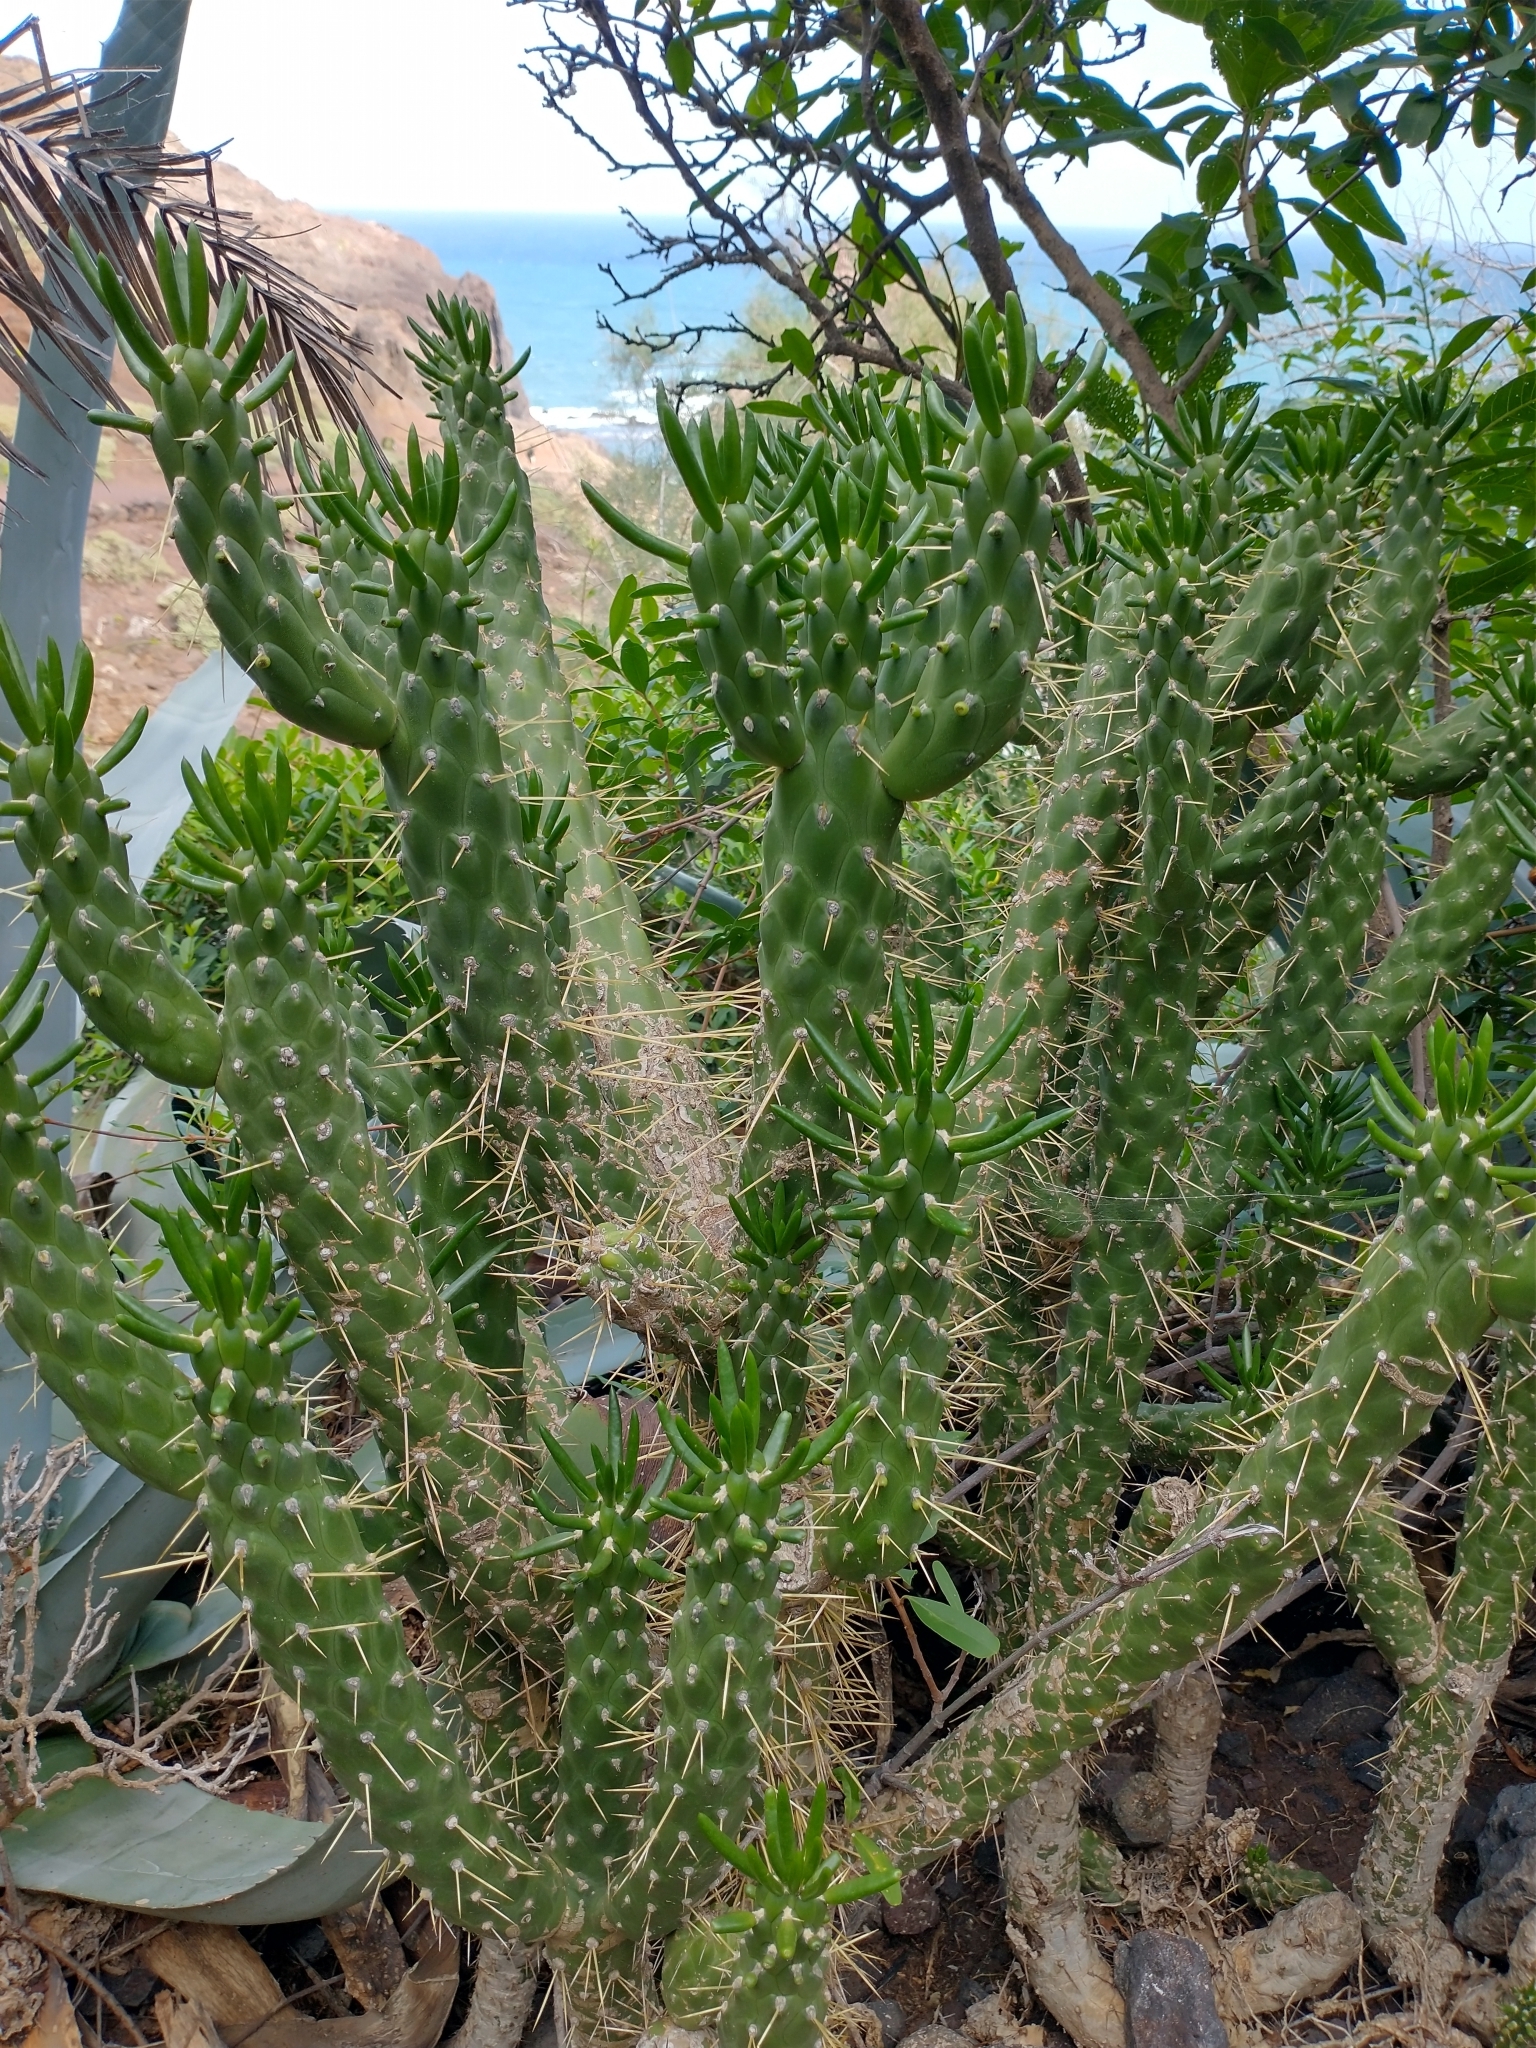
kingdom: Plantae
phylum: Tracheophyta
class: Magnoliopsida
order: Caryophyllales
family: Cactaceae
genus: Austrocylindropuntia
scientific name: Austrocylindropuntia subulata
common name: Eve's needle cactus
